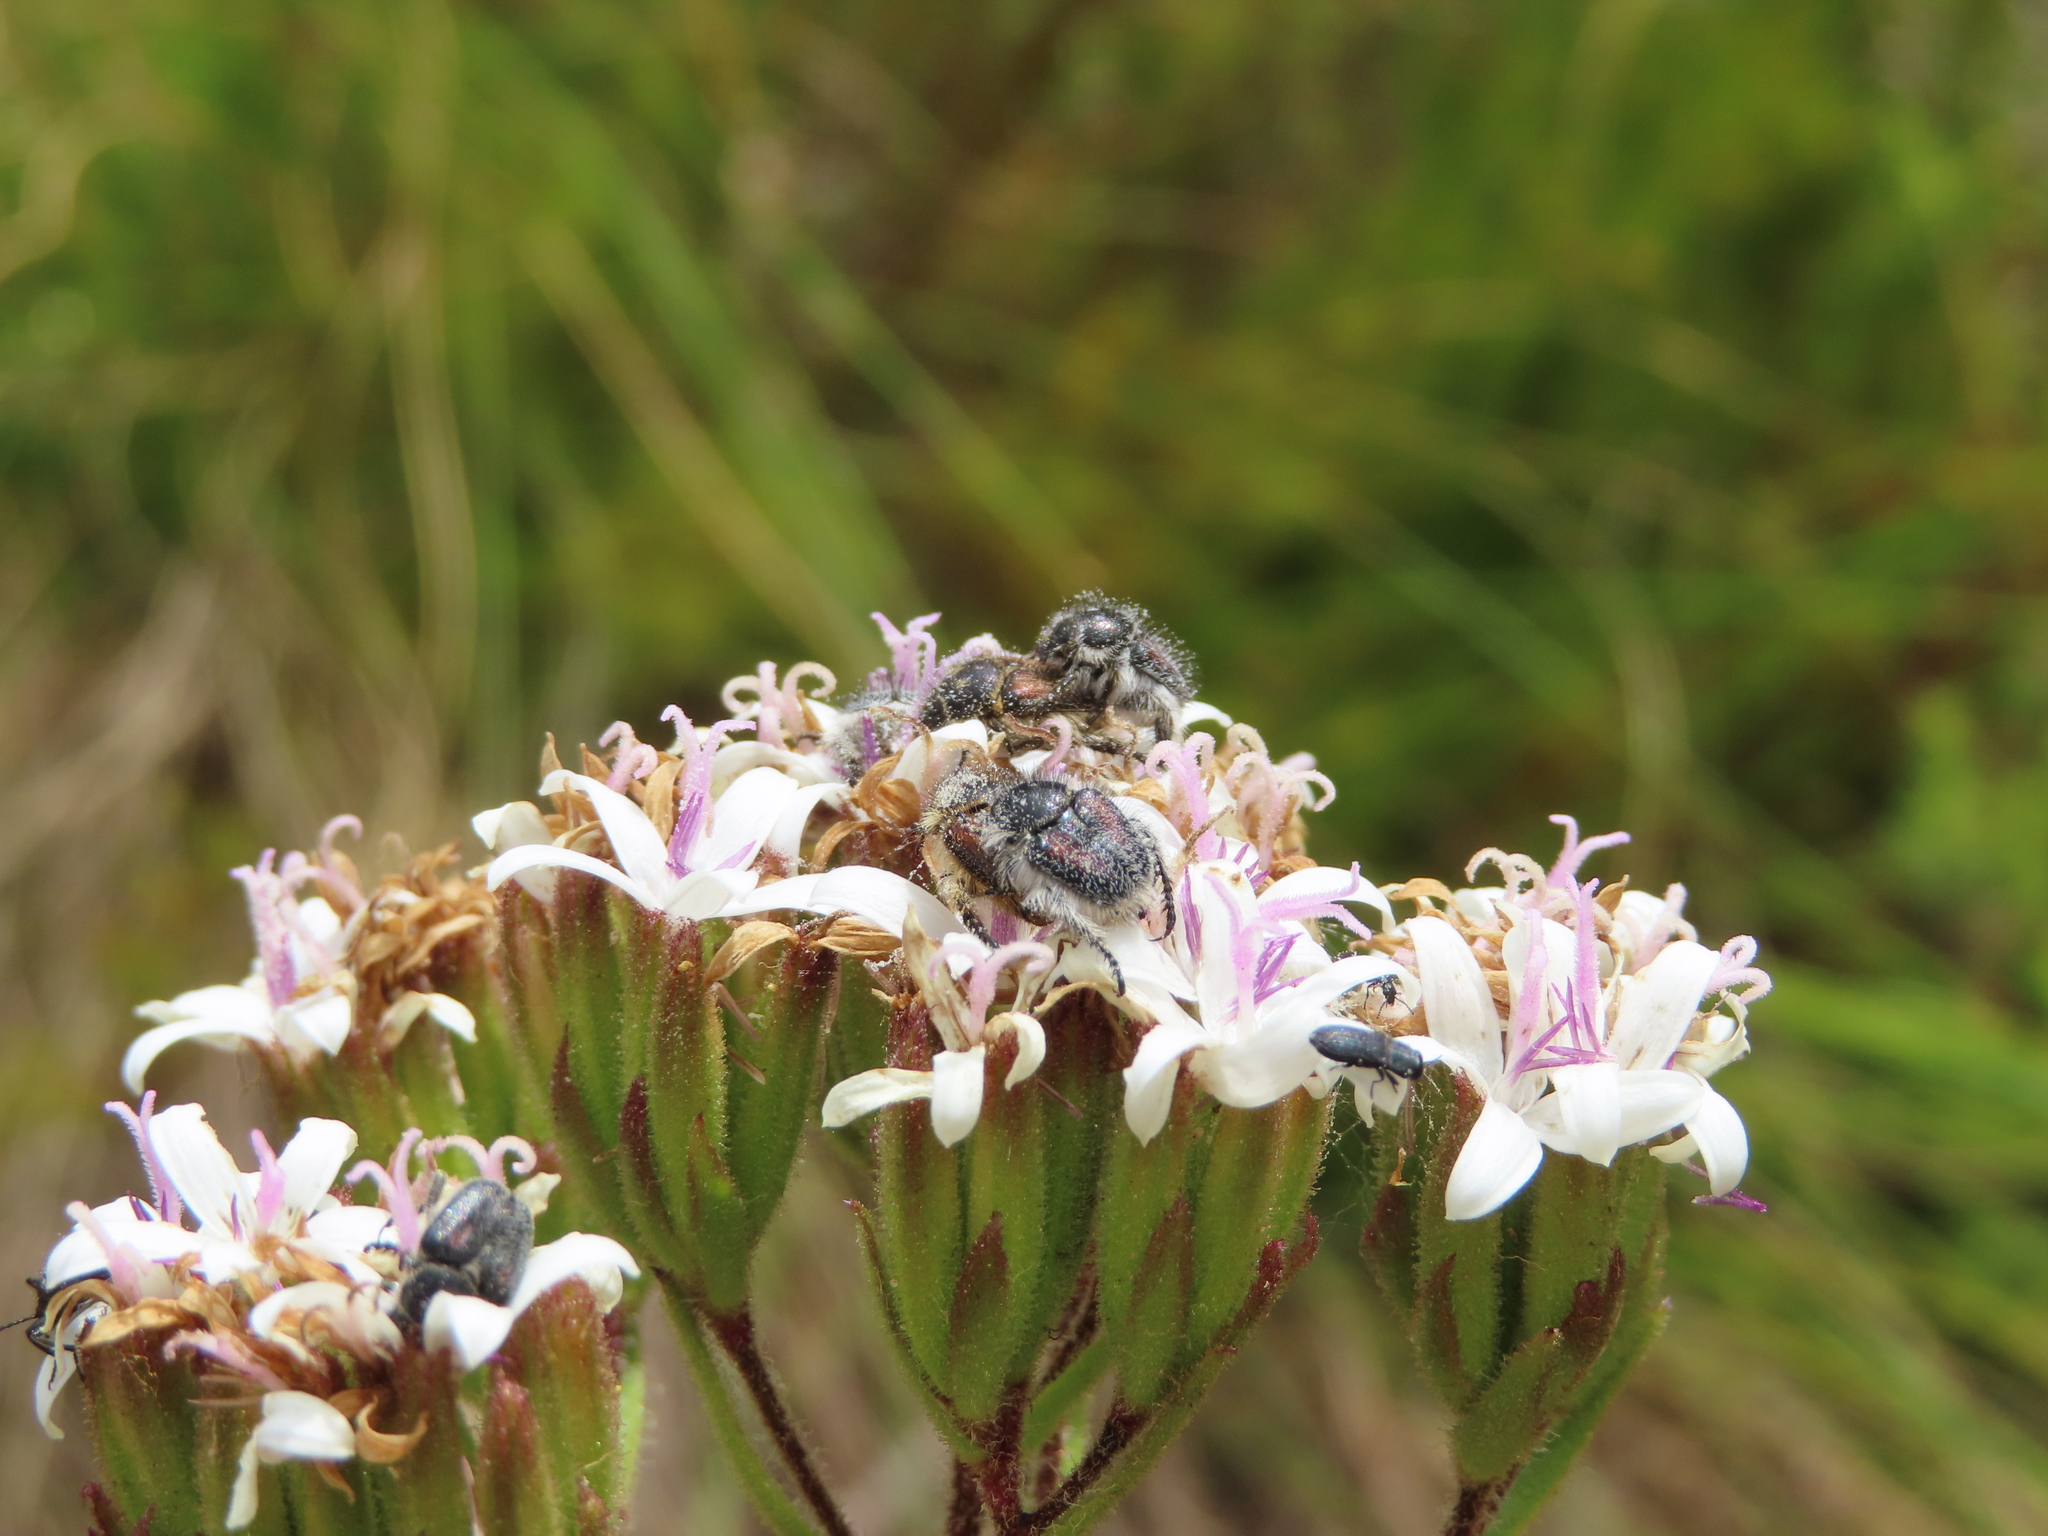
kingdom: Plantae
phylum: Tracheophyta
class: Magnoliopsida
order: Asterales
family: Asteraceae
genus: Corymbium
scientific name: Corymbium villosum
